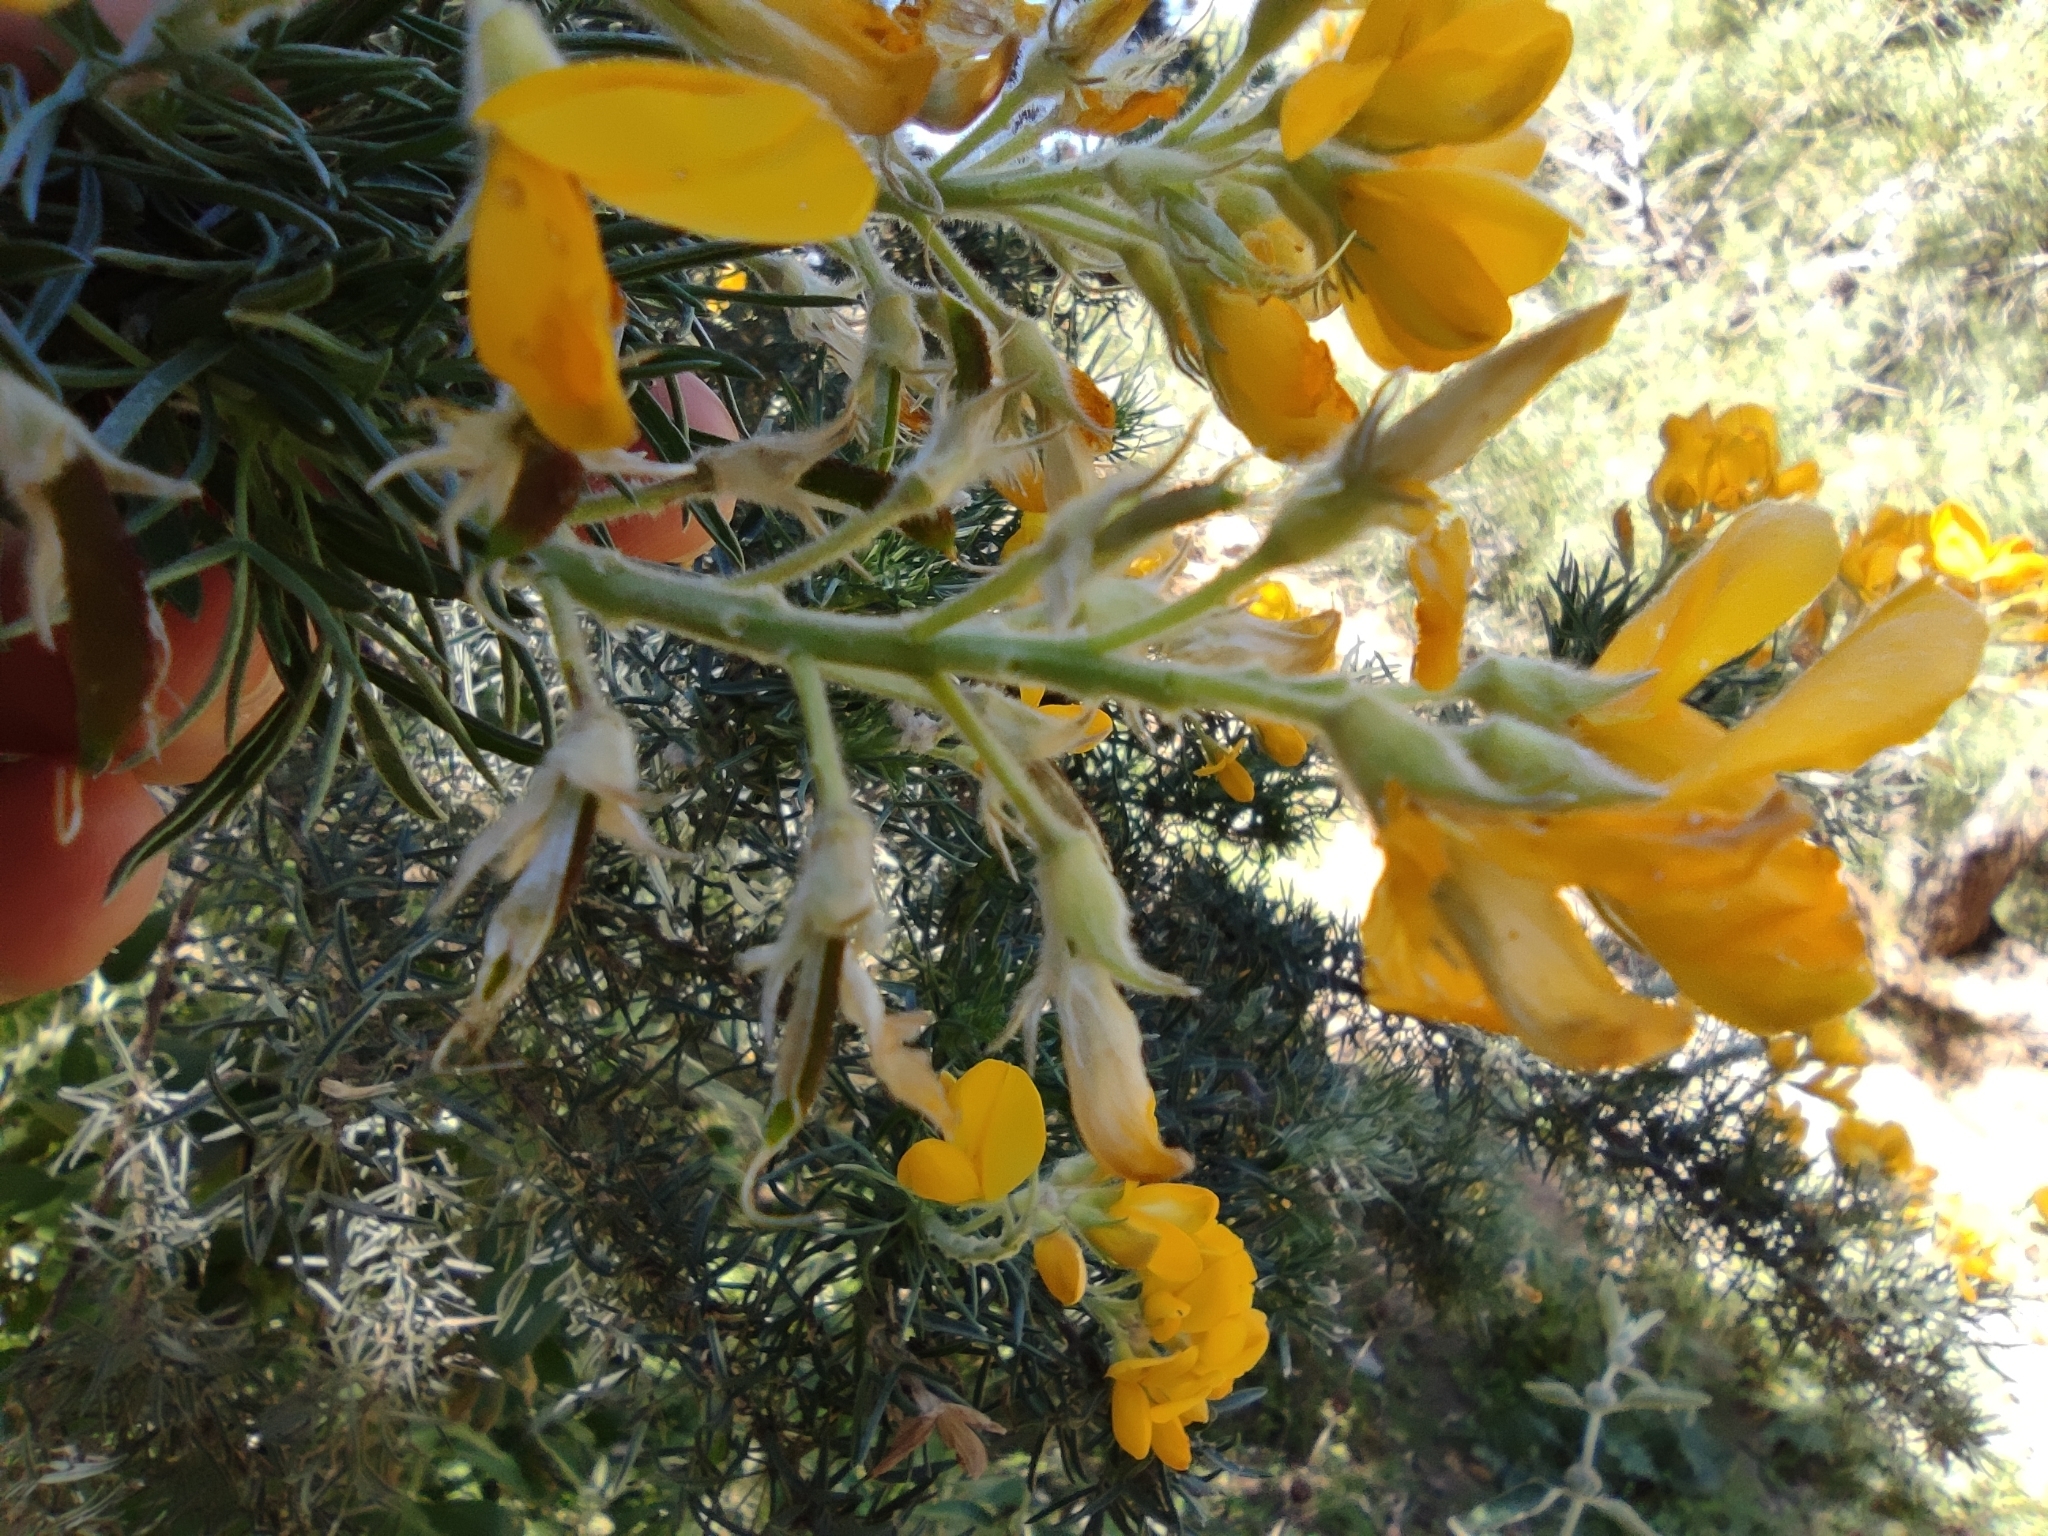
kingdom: Plantae
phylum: Tracheophyta
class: Magnoliopsida
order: Fabales
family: Fabaceae
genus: Adenocarpus
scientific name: Adenocarpus decorticans
